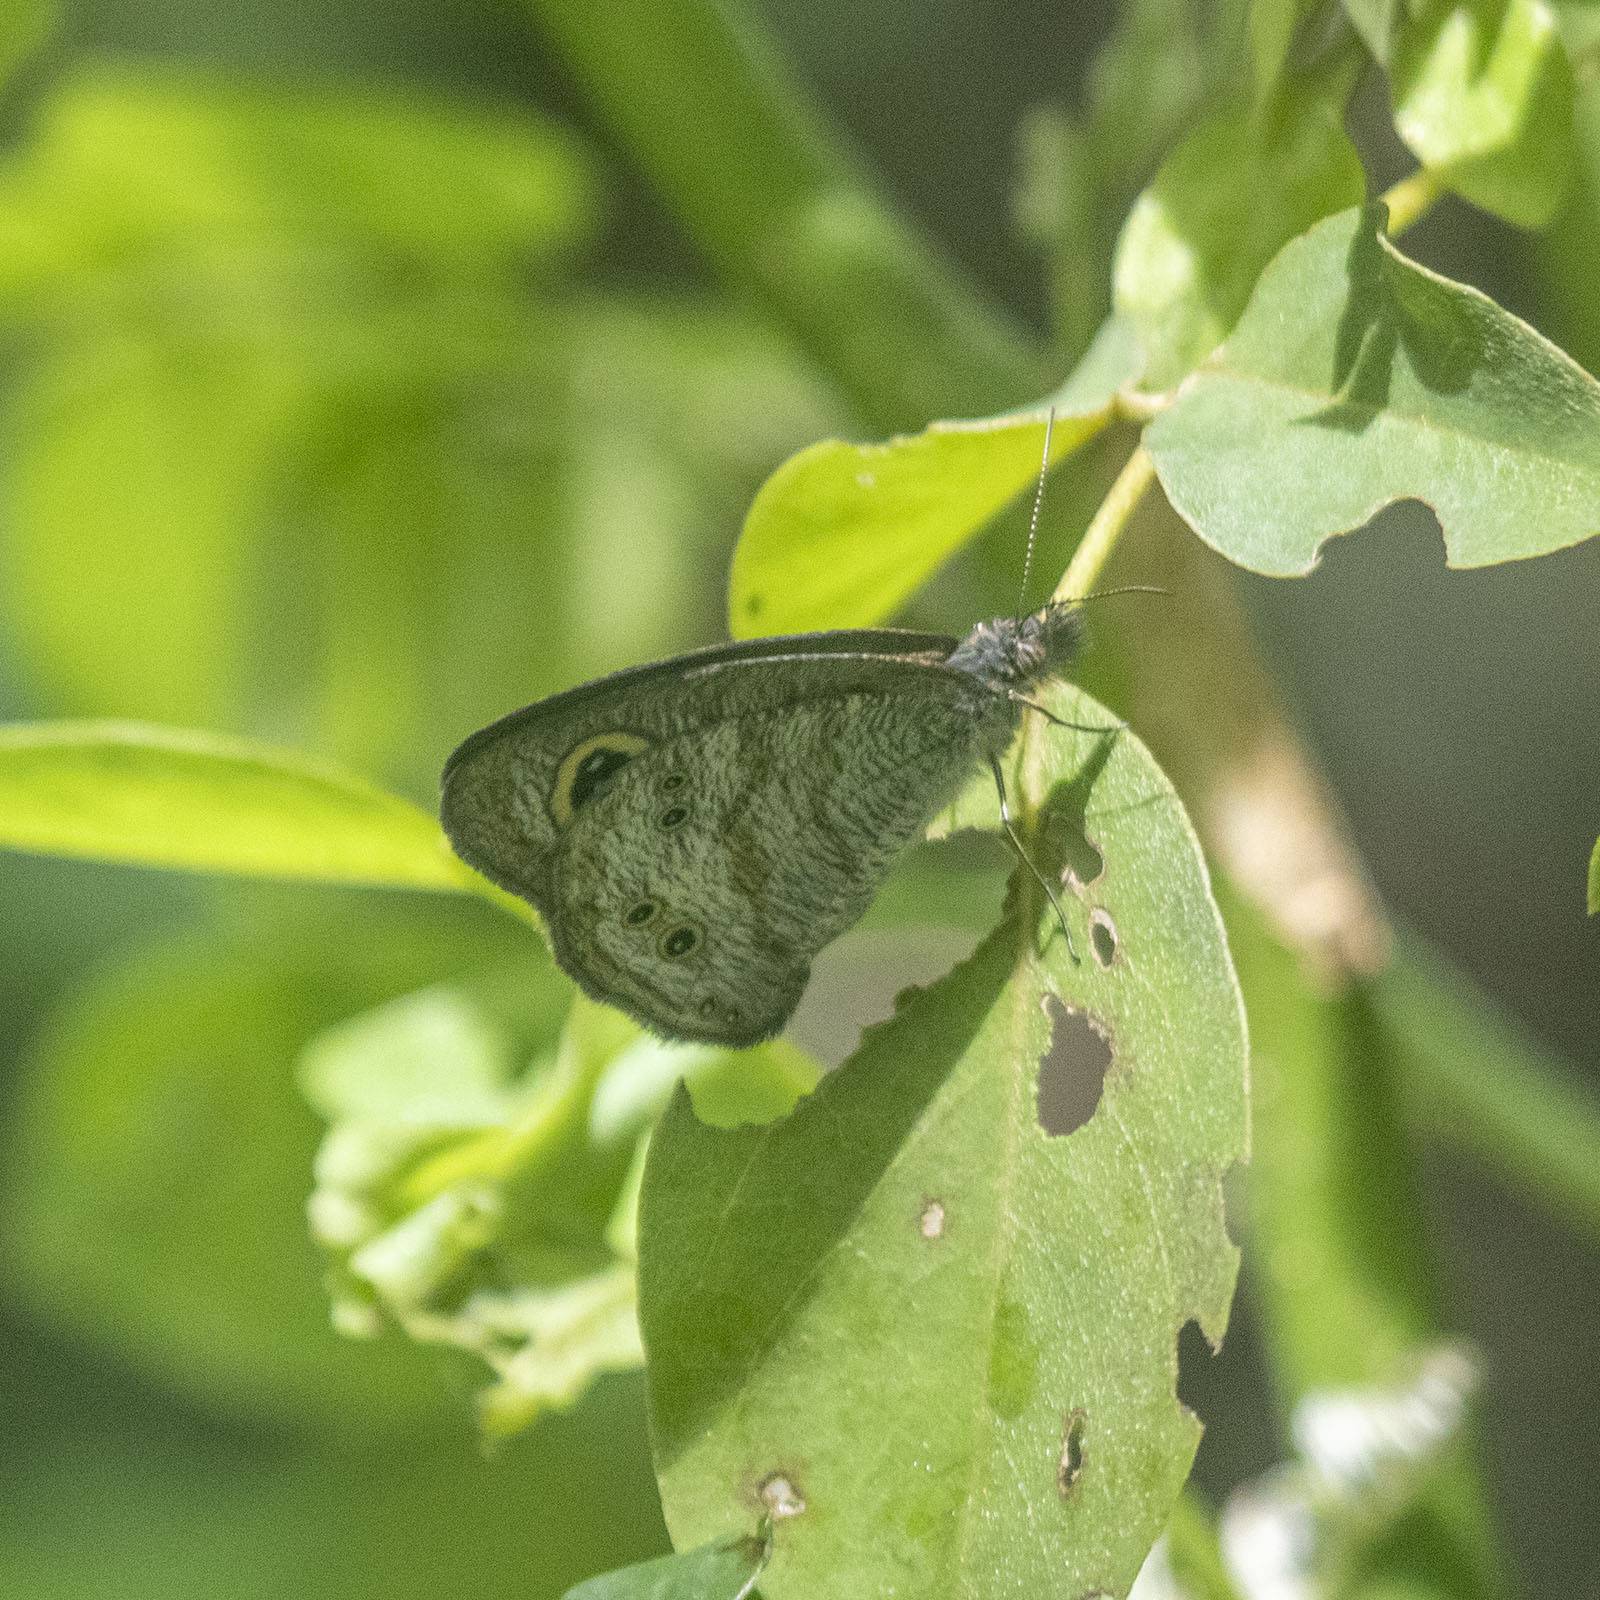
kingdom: Animalia
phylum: Arthropoda
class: Insecta
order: Lepidoptera
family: Nymphalidae
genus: Ypthima
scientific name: Ypthima baldus
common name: Common five-ring
